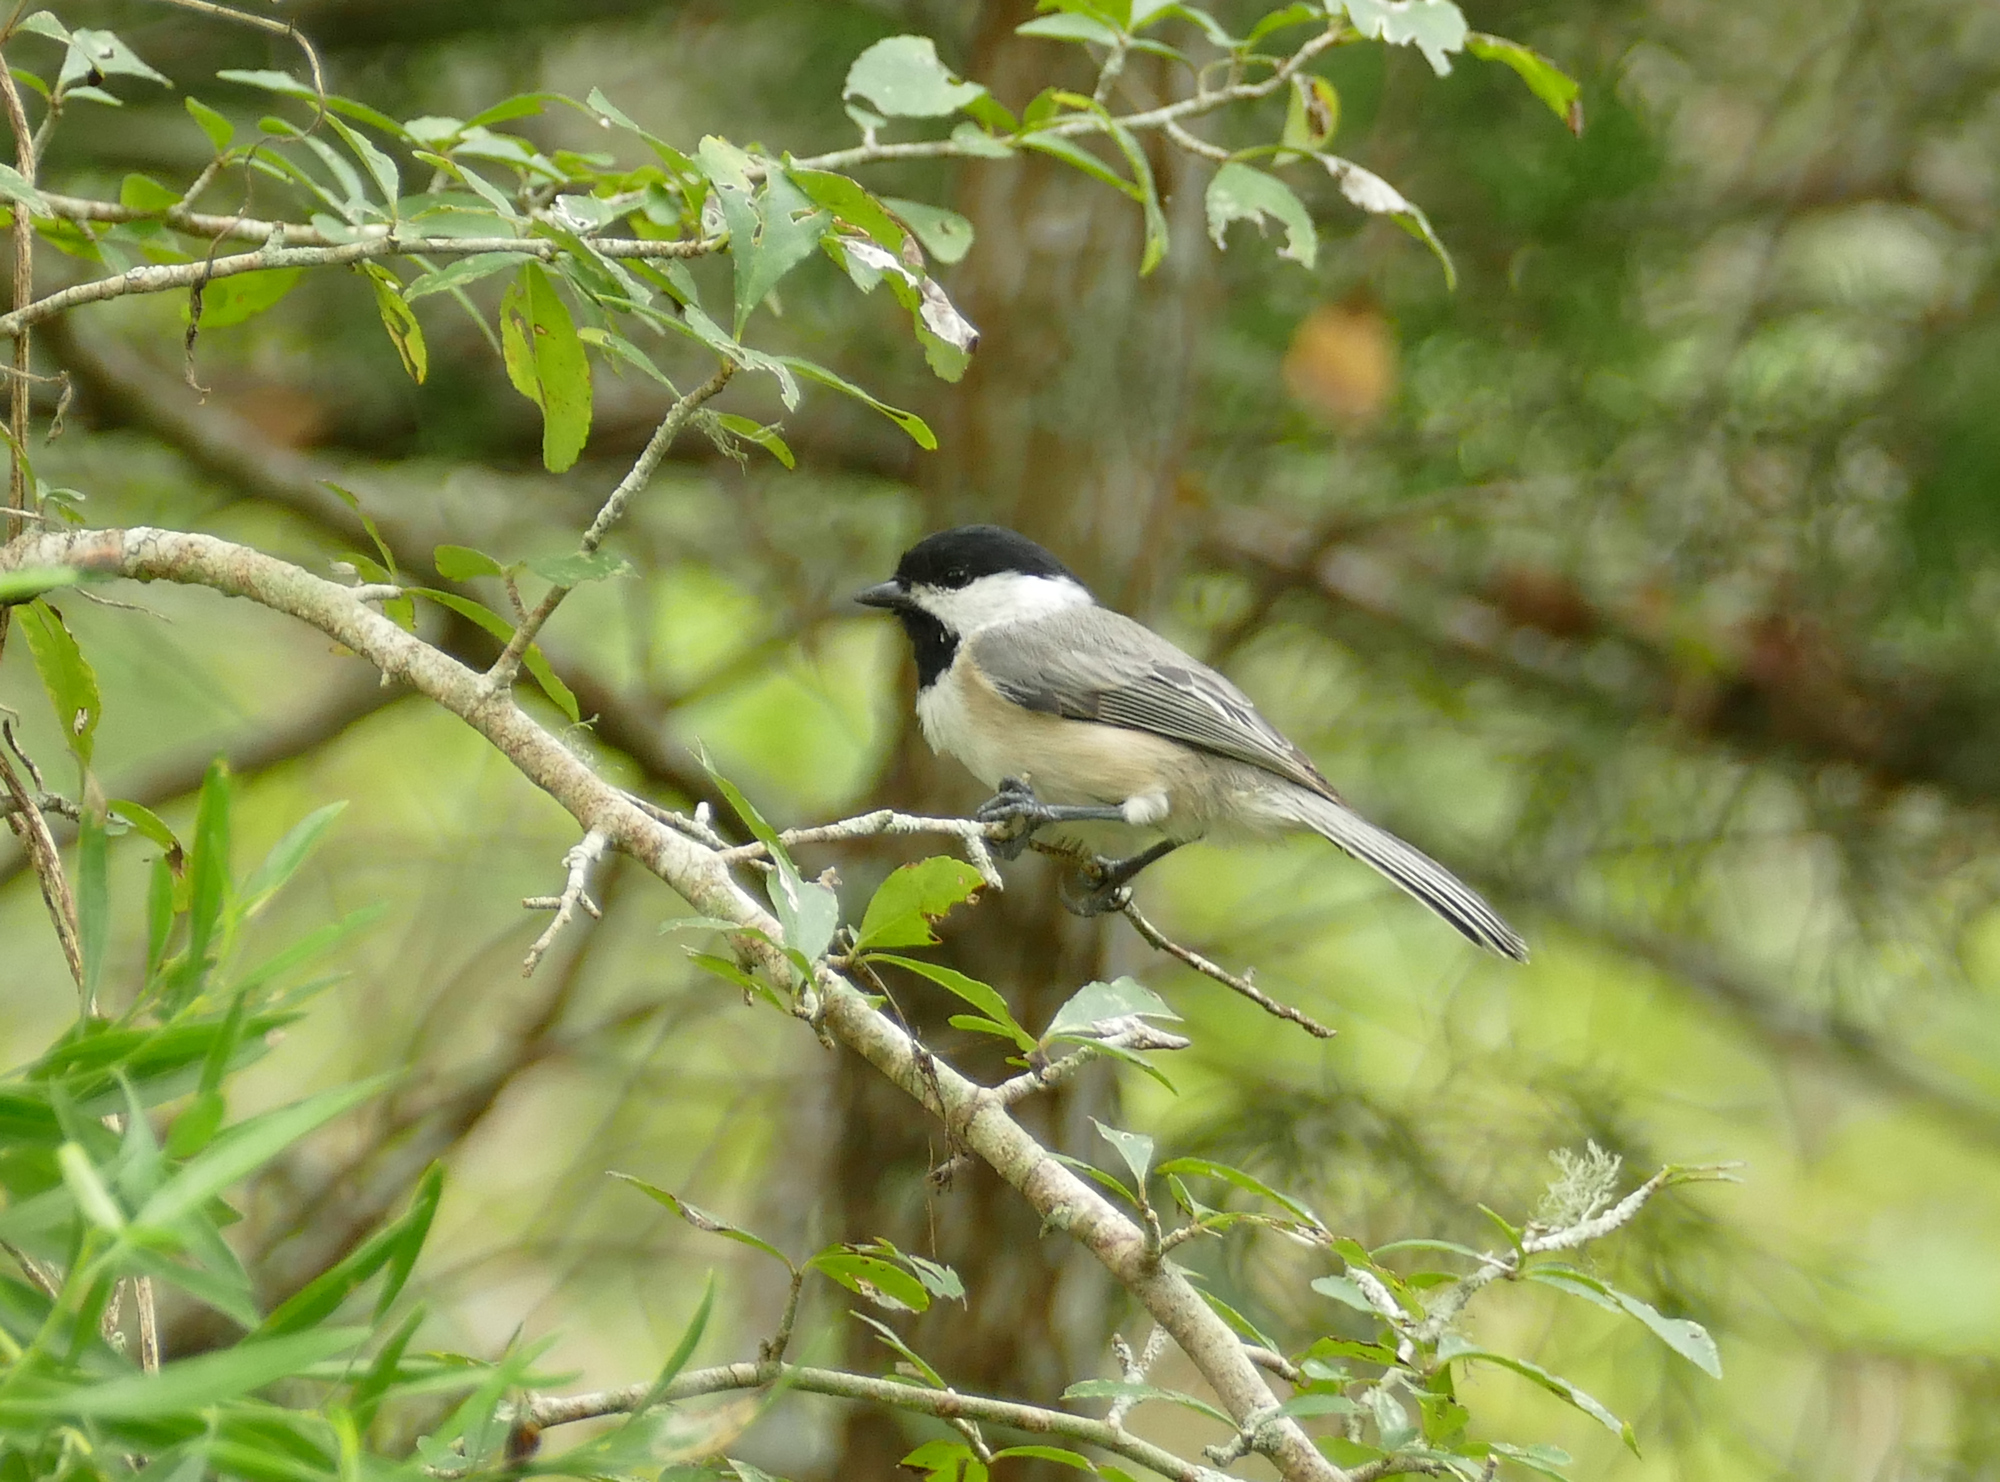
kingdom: Animalia
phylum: Chordata
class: Aves
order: Passeriformes
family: Paridae
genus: Poecile
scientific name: Poecile carolinensis
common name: Carolina chickadee
